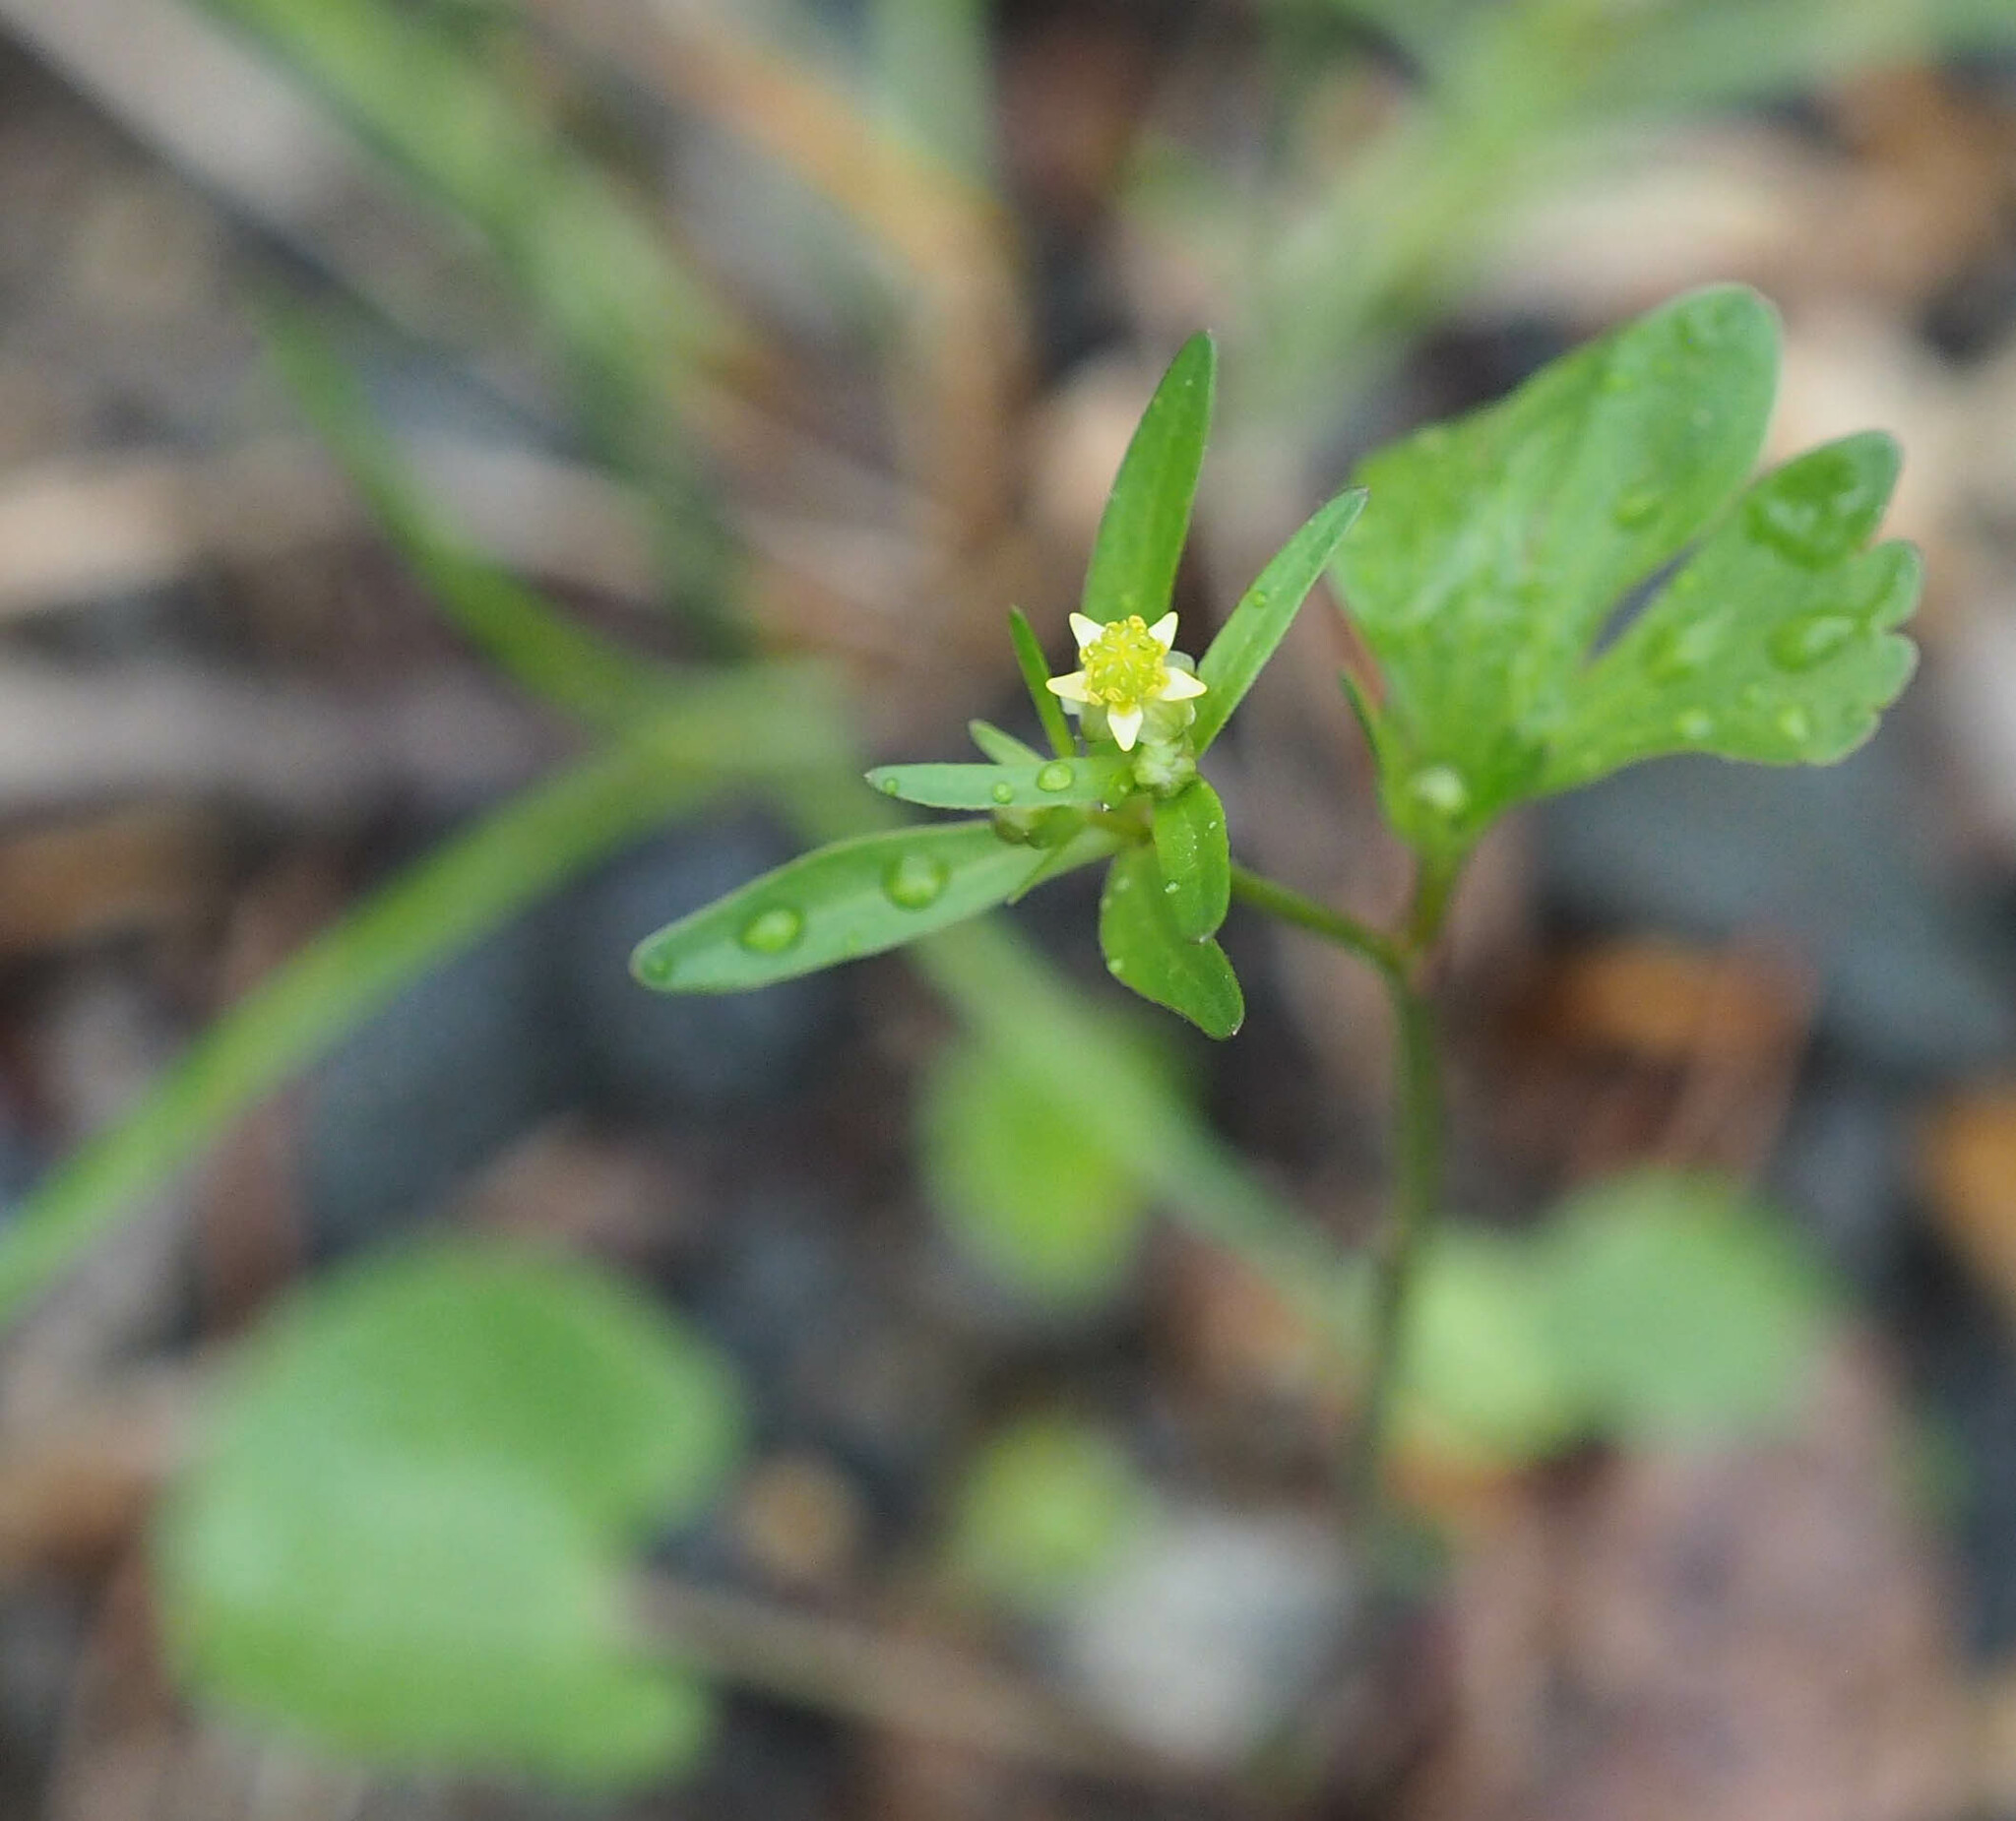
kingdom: Plantae
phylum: Tracheophyta
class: Magnoliopsida
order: Ranunculales
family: Ranunculaceae
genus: Ranunculus
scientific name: Ranunculus abortivus
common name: Early wood buttercup
